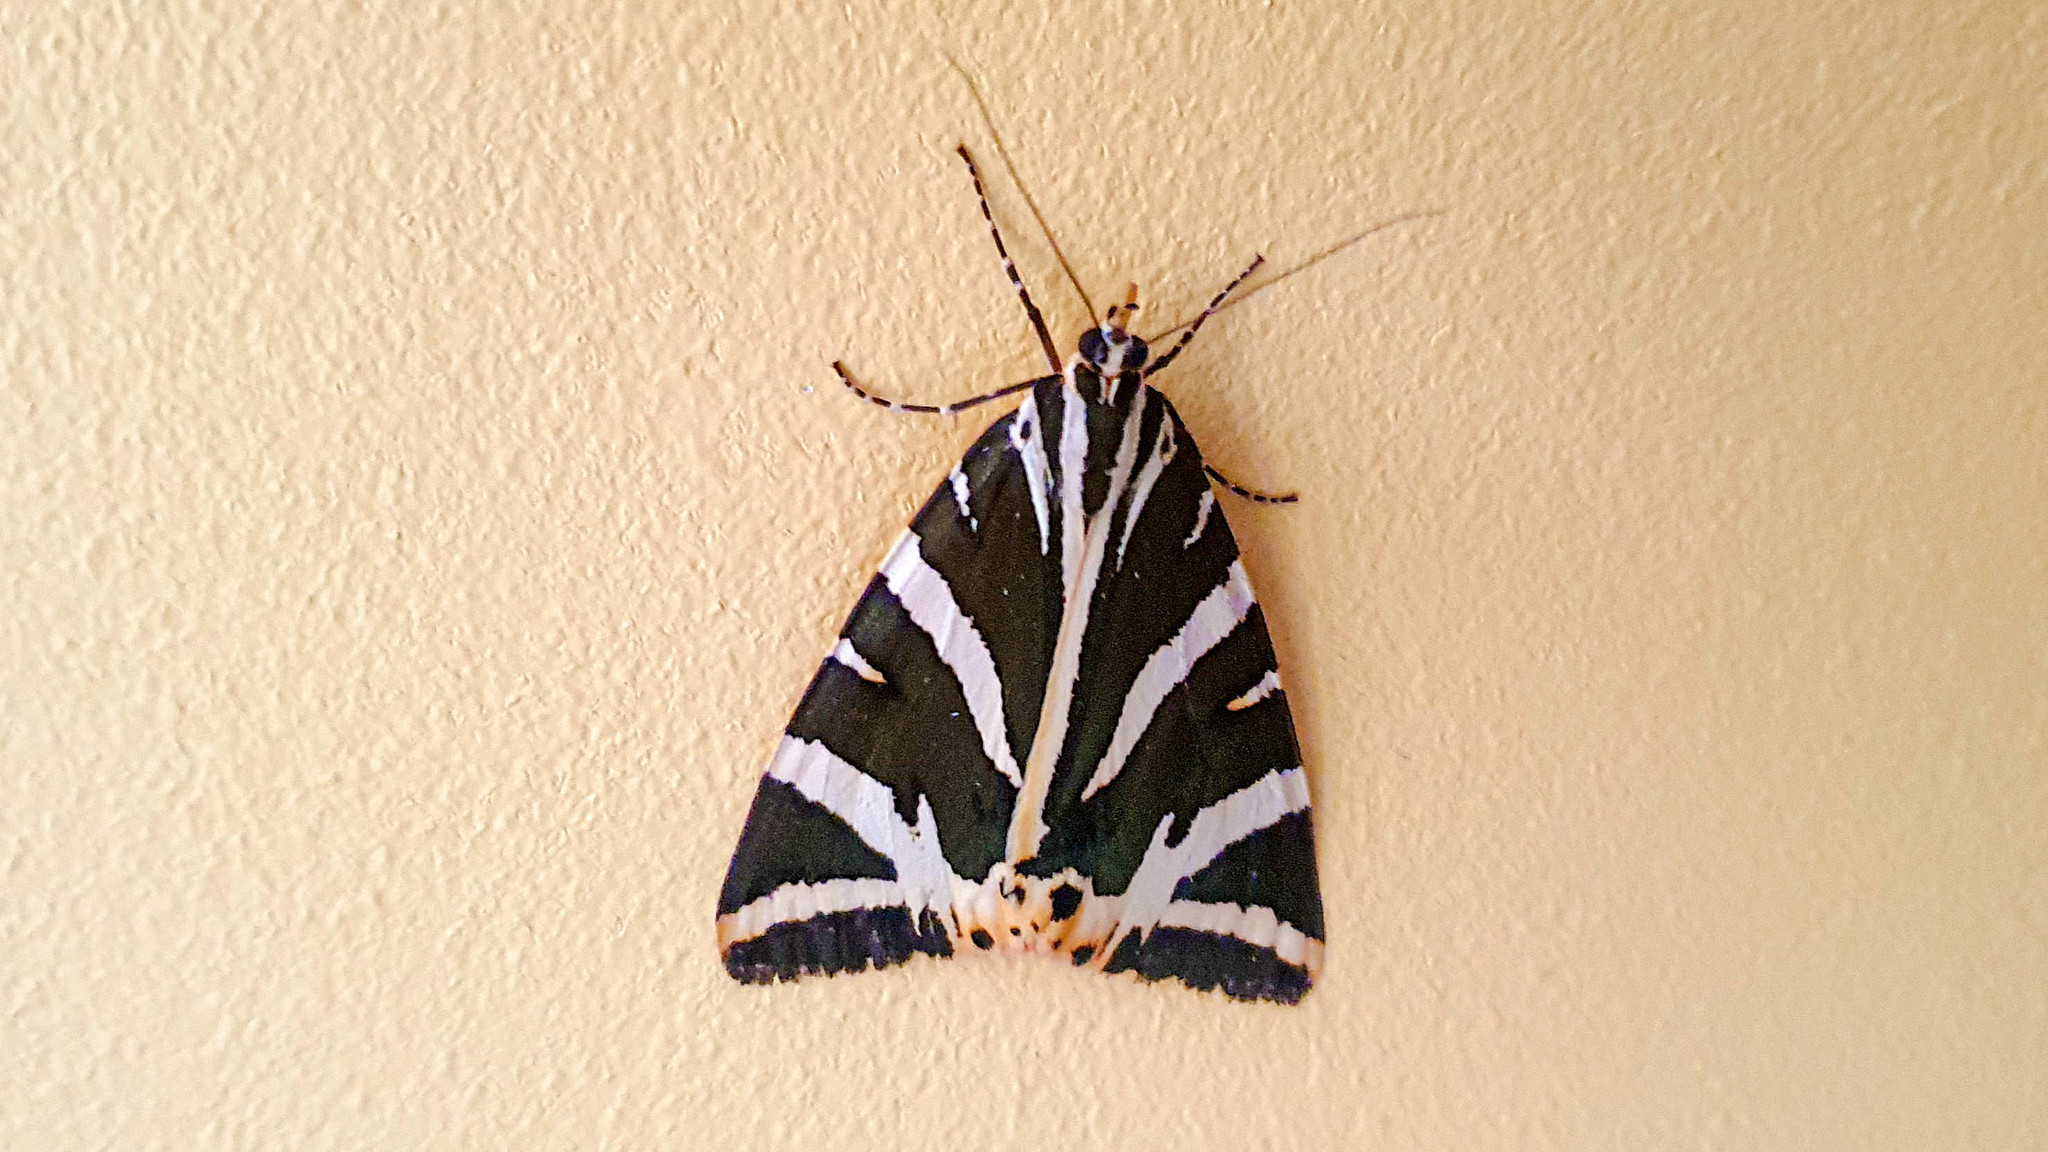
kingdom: Animalia
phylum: Arthropoda
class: Insecta
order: Lepidoptera
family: Erebidae
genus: Euplagia
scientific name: Euplagia quadripunctaria
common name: Jersey tiger
